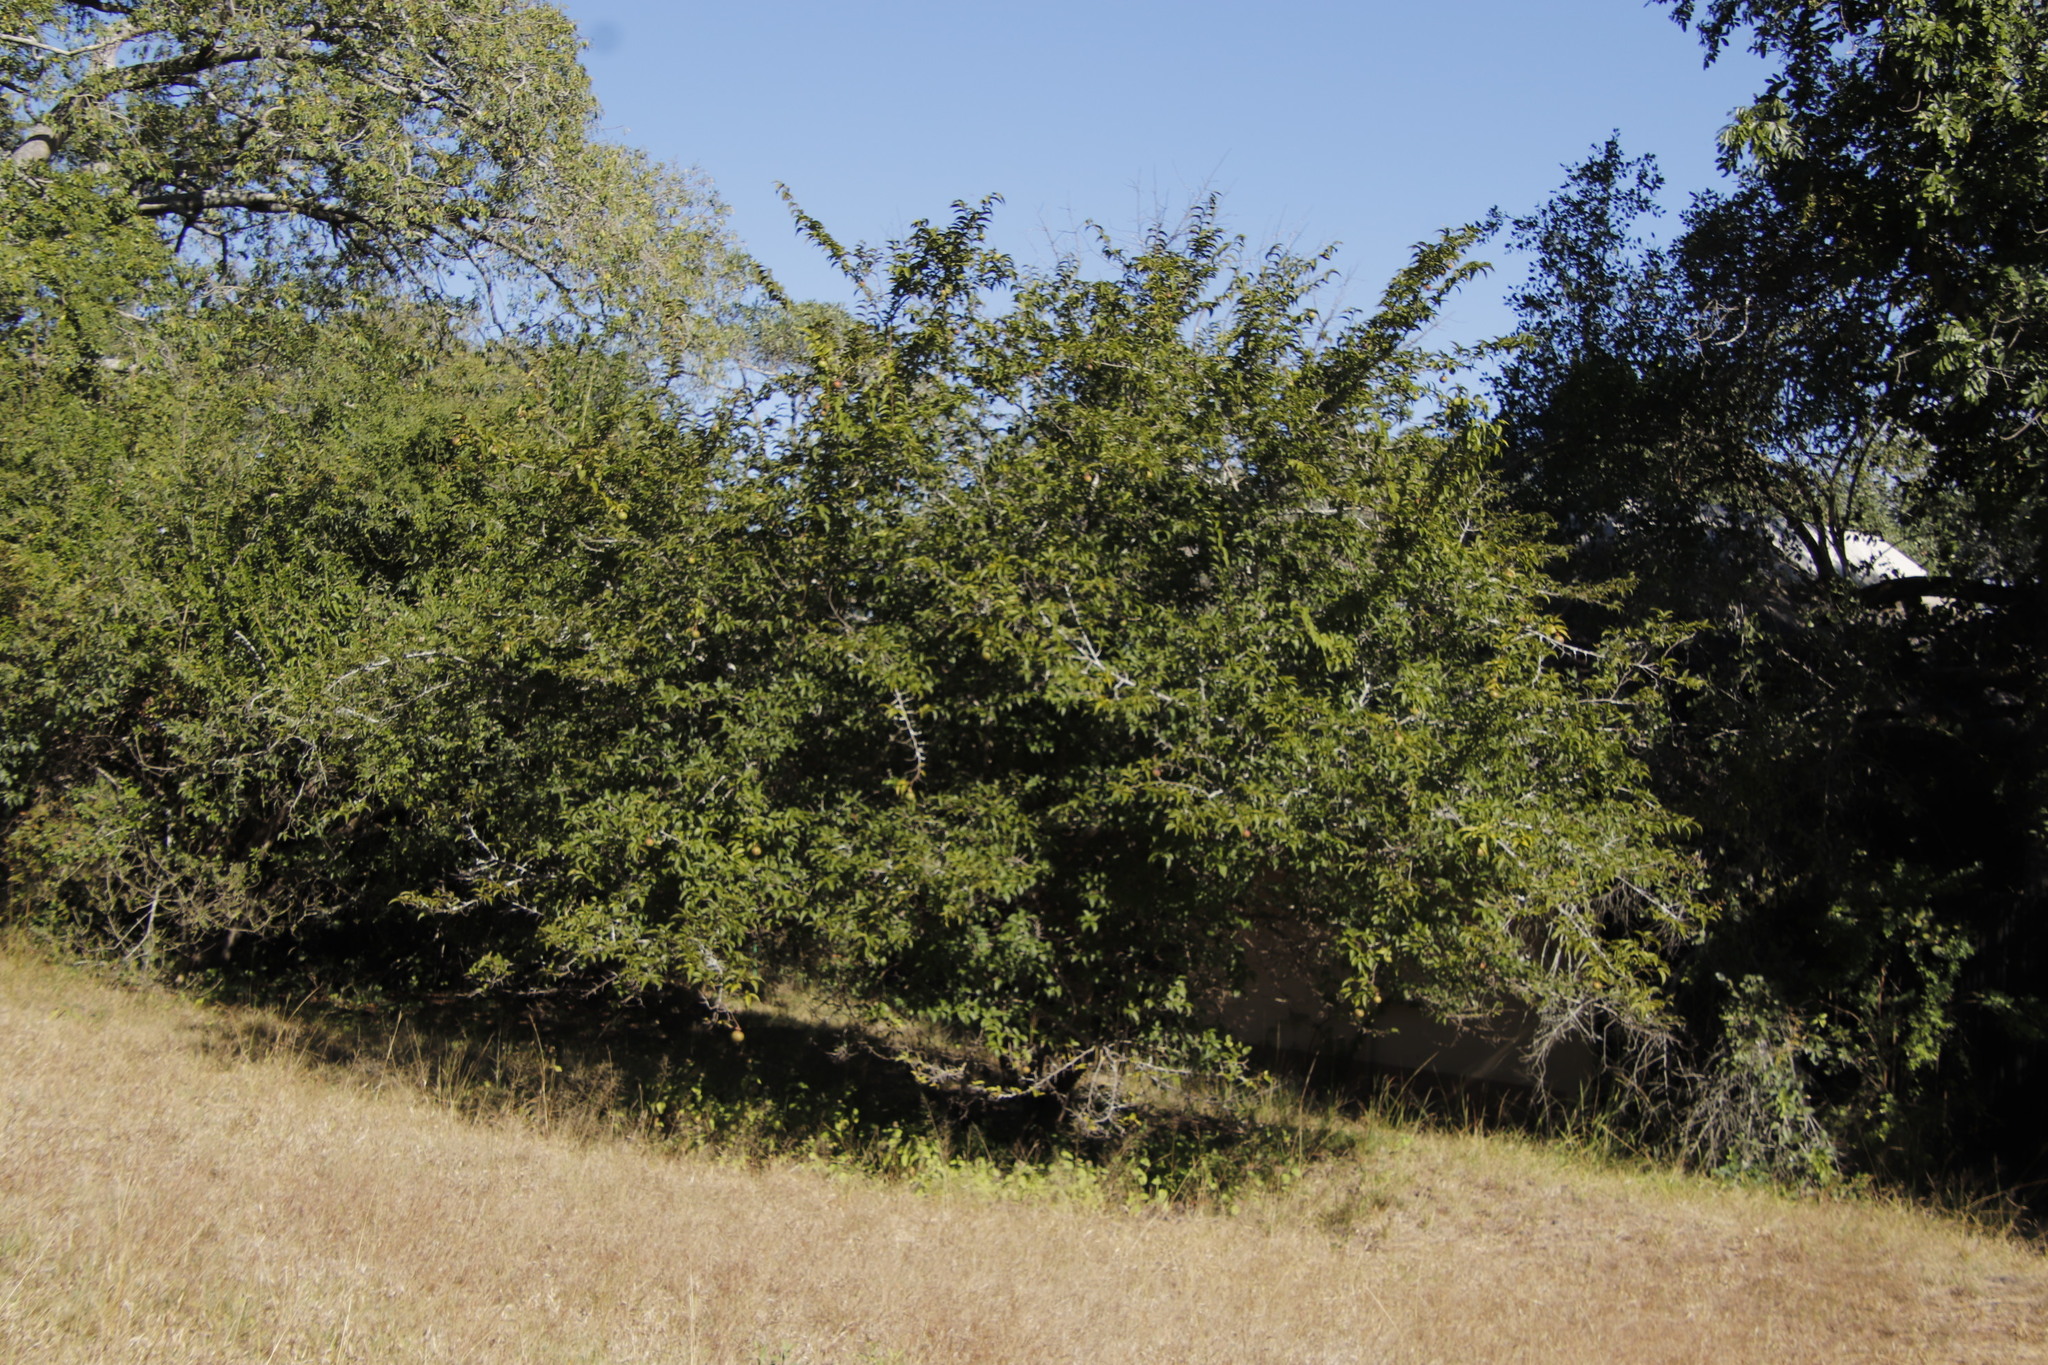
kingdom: Plantae
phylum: Tracheophyta
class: Magnoliopsida
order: Malpighiales
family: Salicaceae
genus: Oncoba
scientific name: Oncoba spinosa
